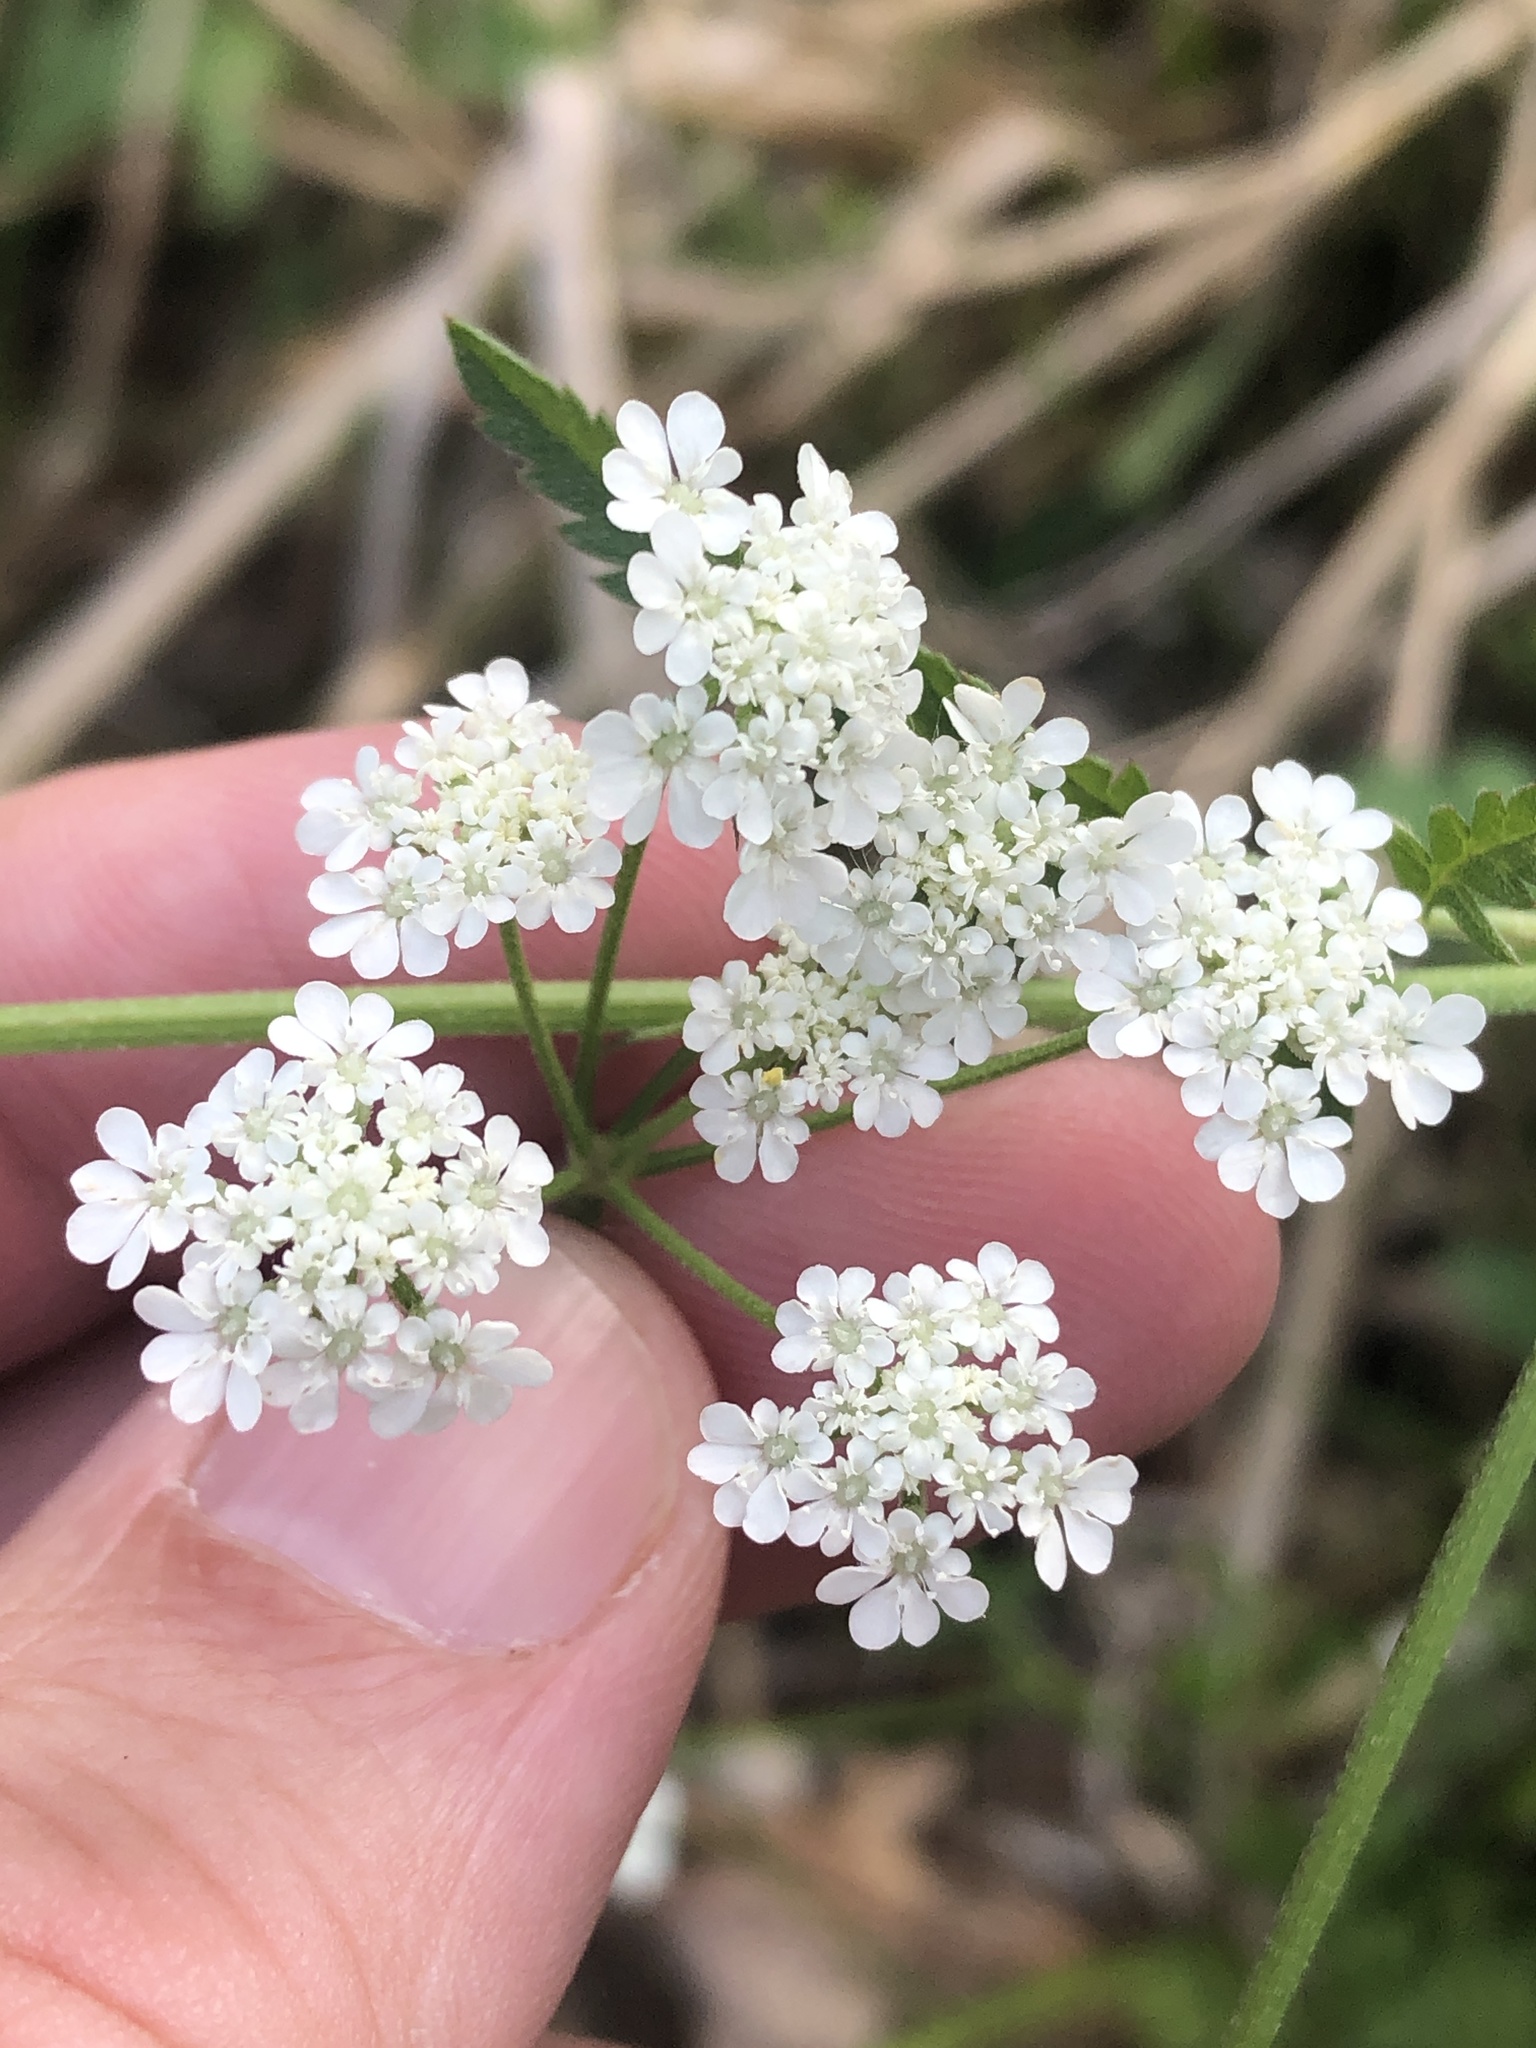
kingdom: Plantae
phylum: Tracheophyta
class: Magnoliopsida
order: Apiales
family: Apiaceae
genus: Torilis
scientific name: Torilis arvensis
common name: Spreading hedge-parsley
